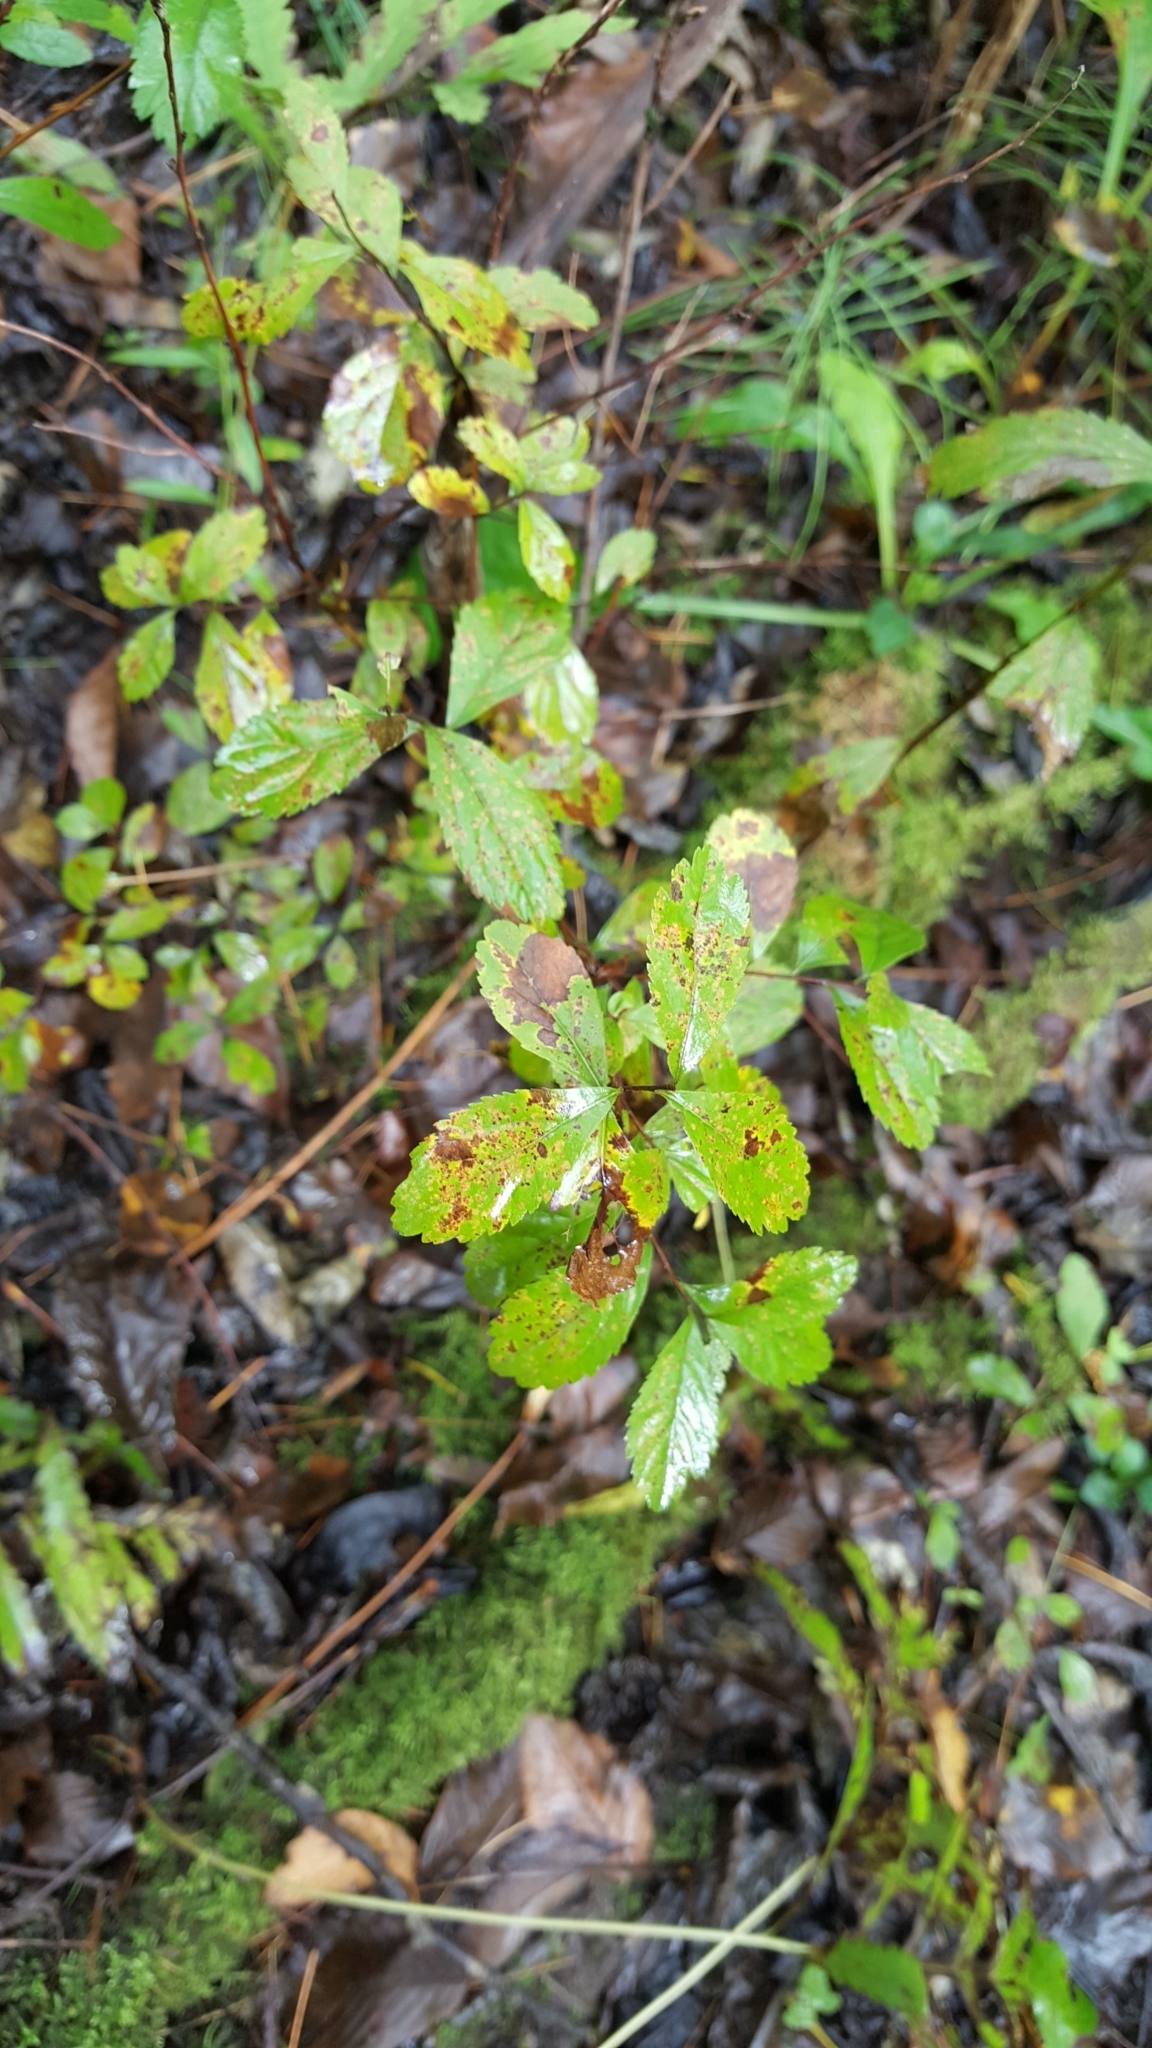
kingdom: Plantae
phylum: Tracheophyta
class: Magnoliopsida
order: Rosales
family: Rosaceae
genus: Spiraea
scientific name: Spiraea alba
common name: Pale bridewort
